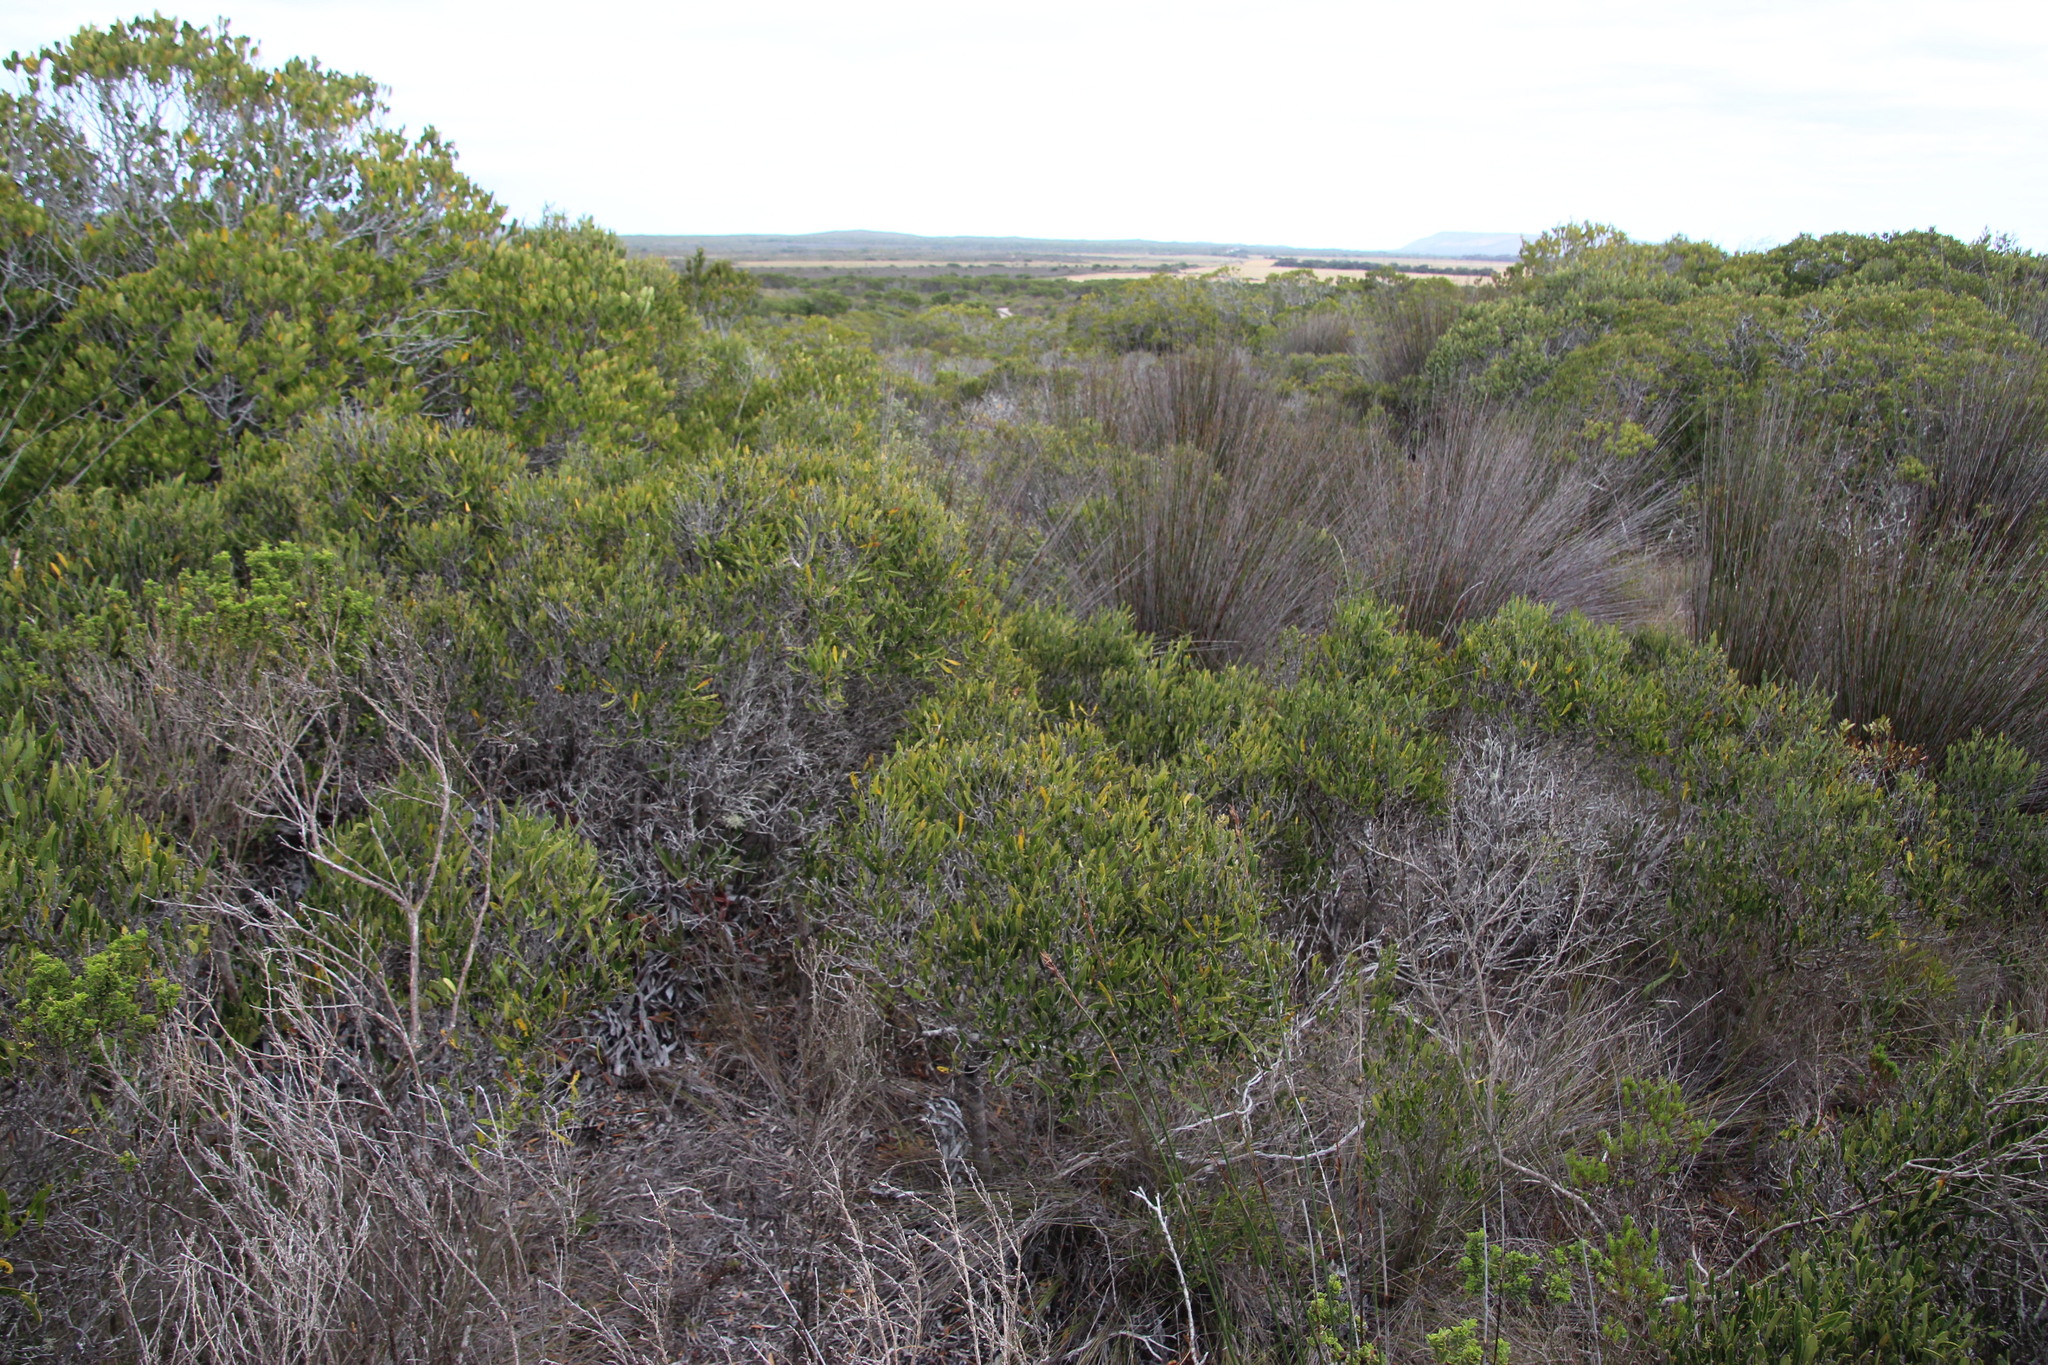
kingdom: Plantae
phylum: Tracheophyta
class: Magnoliopsida
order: Lamiales
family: Oleaceae
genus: Olea
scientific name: Olea exasperata
